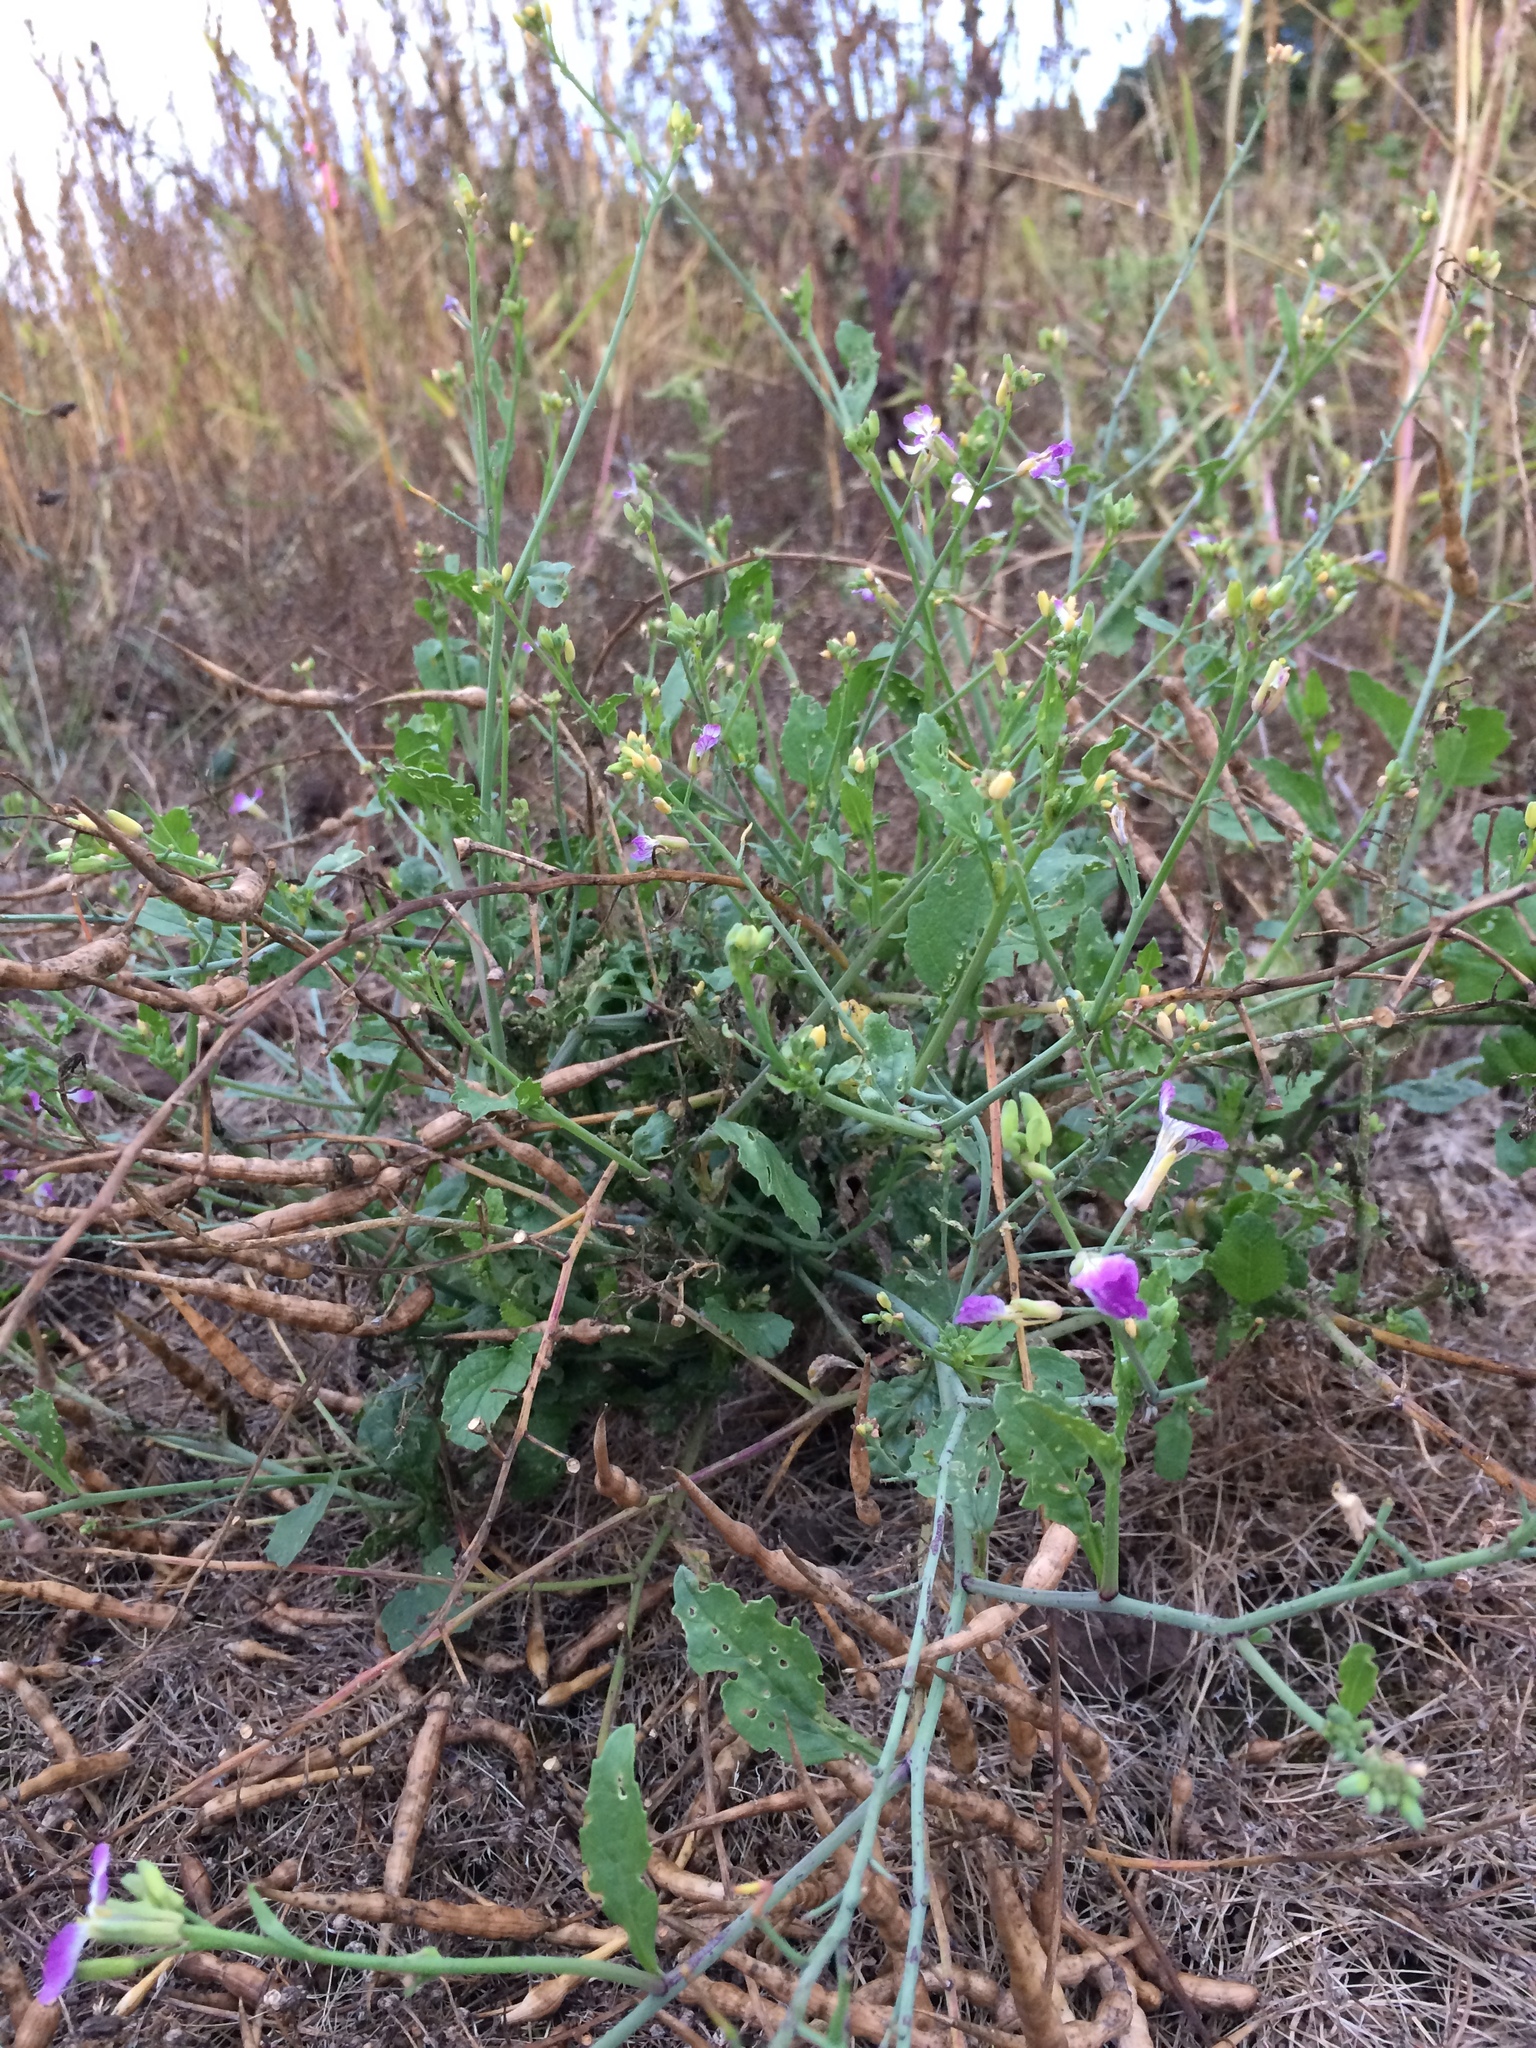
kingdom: Plantae
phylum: Tracheophyta
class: Magnoliopsida
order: Brassicales
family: Brassicaceae
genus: Raphanus
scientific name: Raphanus sativus
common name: Cultivated radish
